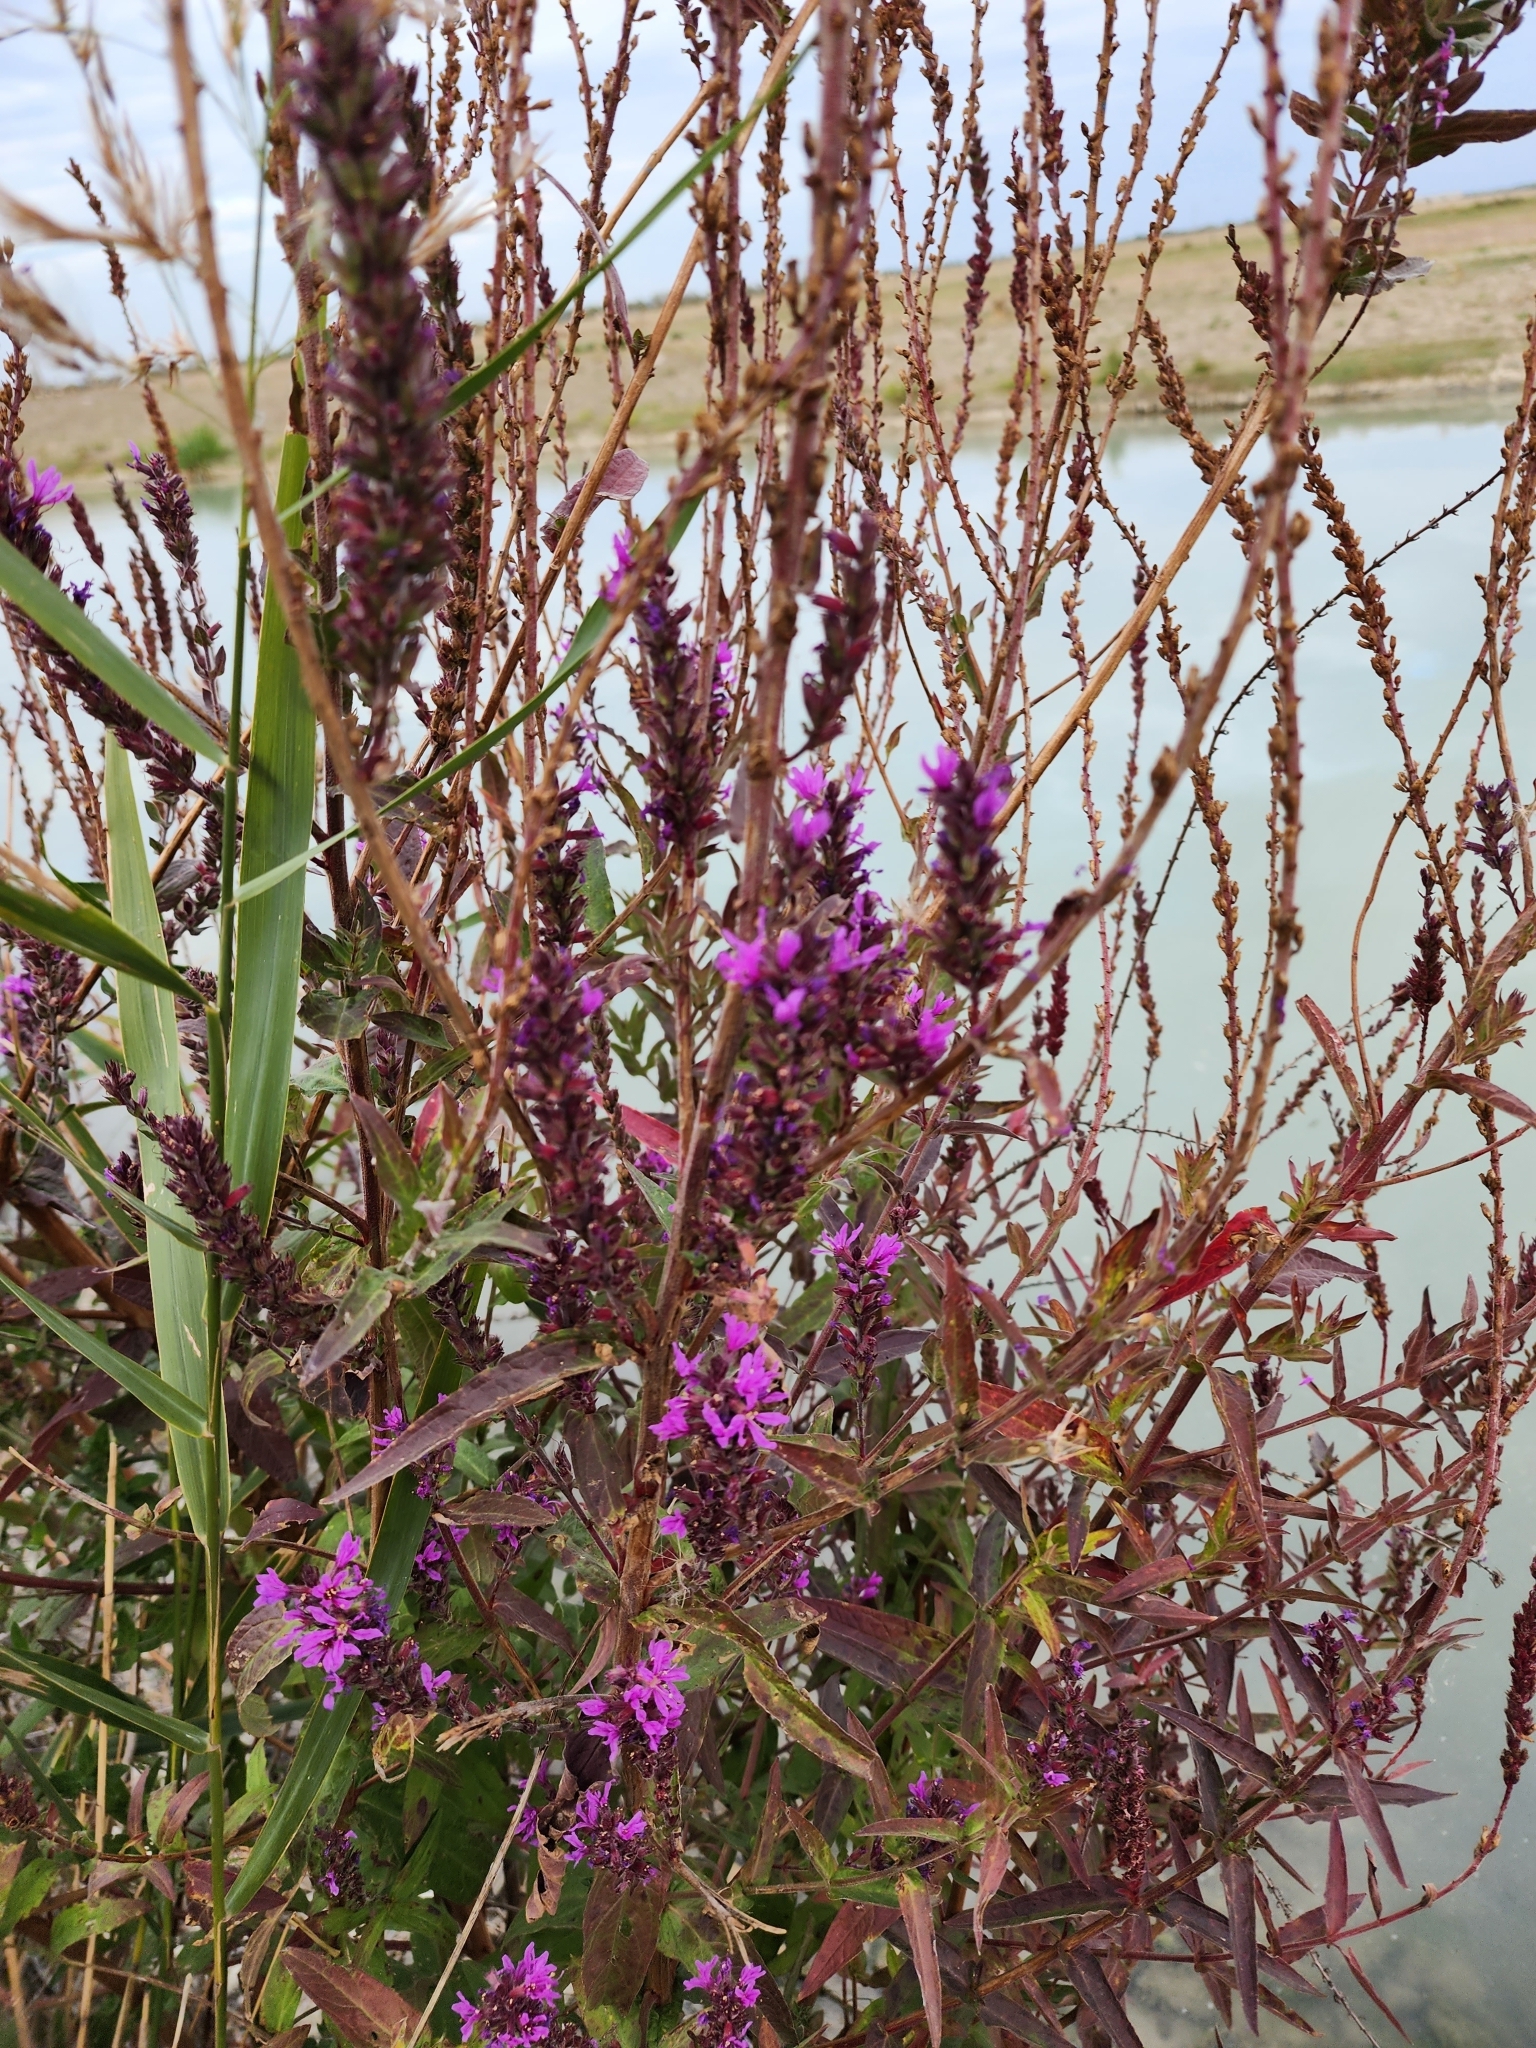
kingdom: Plantae
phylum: Tracheophyta
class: Magnoliopsida
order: Myrtales
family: Lythraceae
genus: Lythrum
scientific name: Lythrum salicaria
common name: Purple loosestrife
